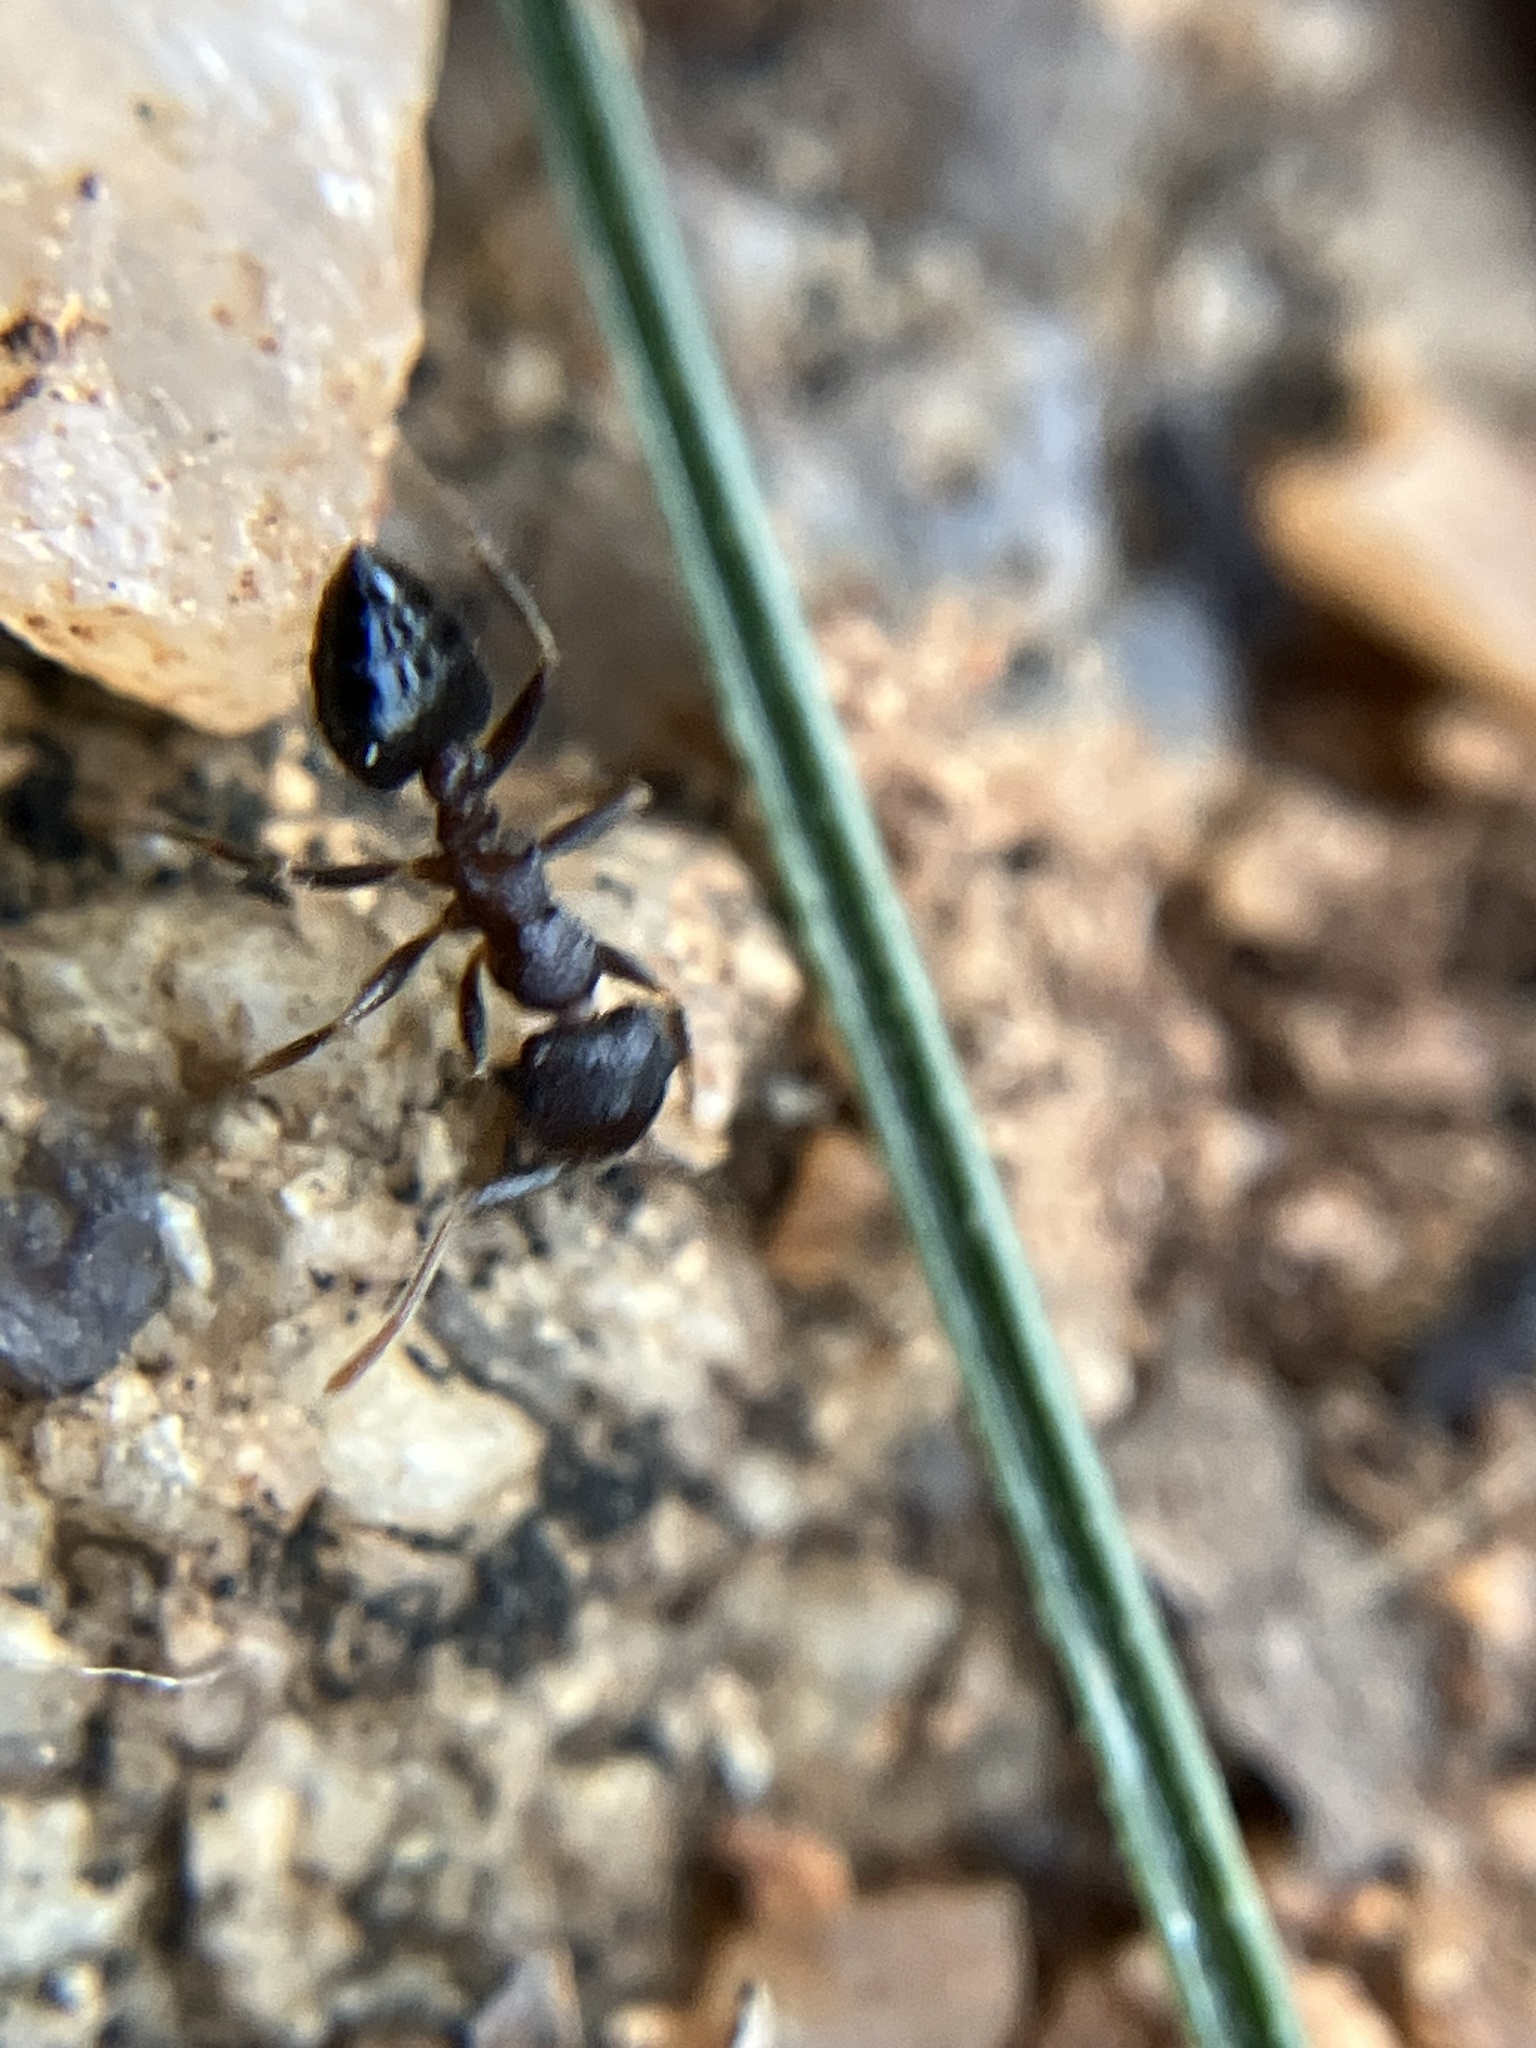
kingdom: Animalia
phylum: Arthropoda
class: Insecta
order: Hymenoptera
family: Formicidae
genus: Crematogaster
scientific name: Crematogaster rothneyi
